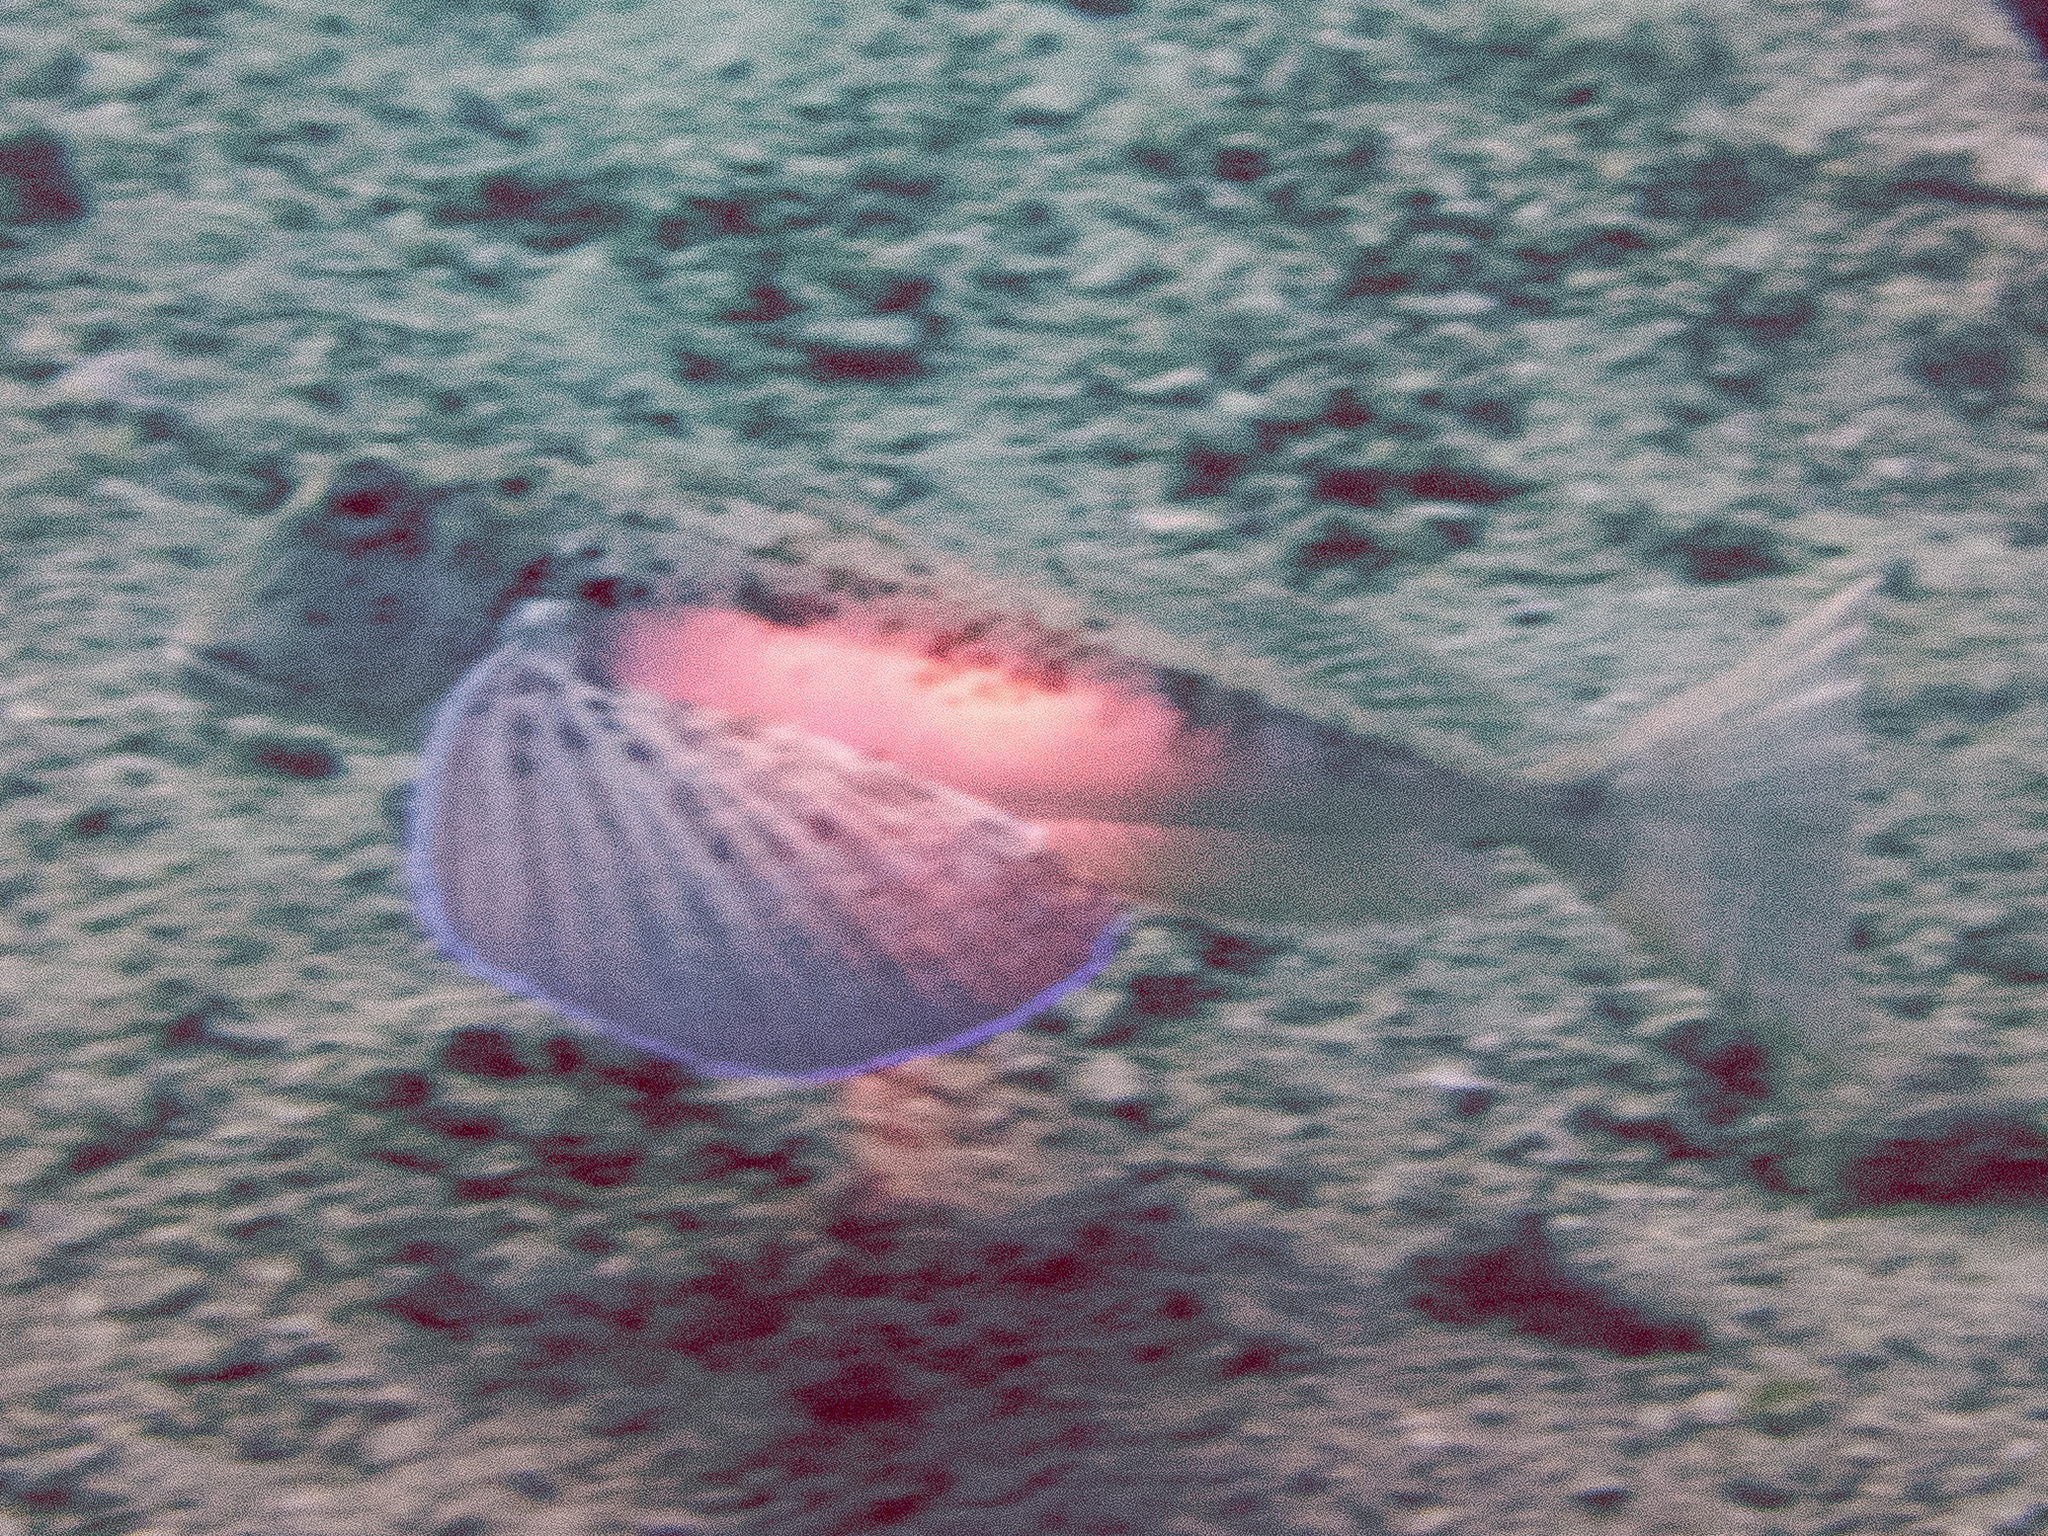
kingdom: Animalia
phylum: Chordata
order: Scorpaeniformes
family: Triglidae
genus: Chelidonichthys
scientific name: Chelidonichthys lastoviza
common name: Streaked gurnard
